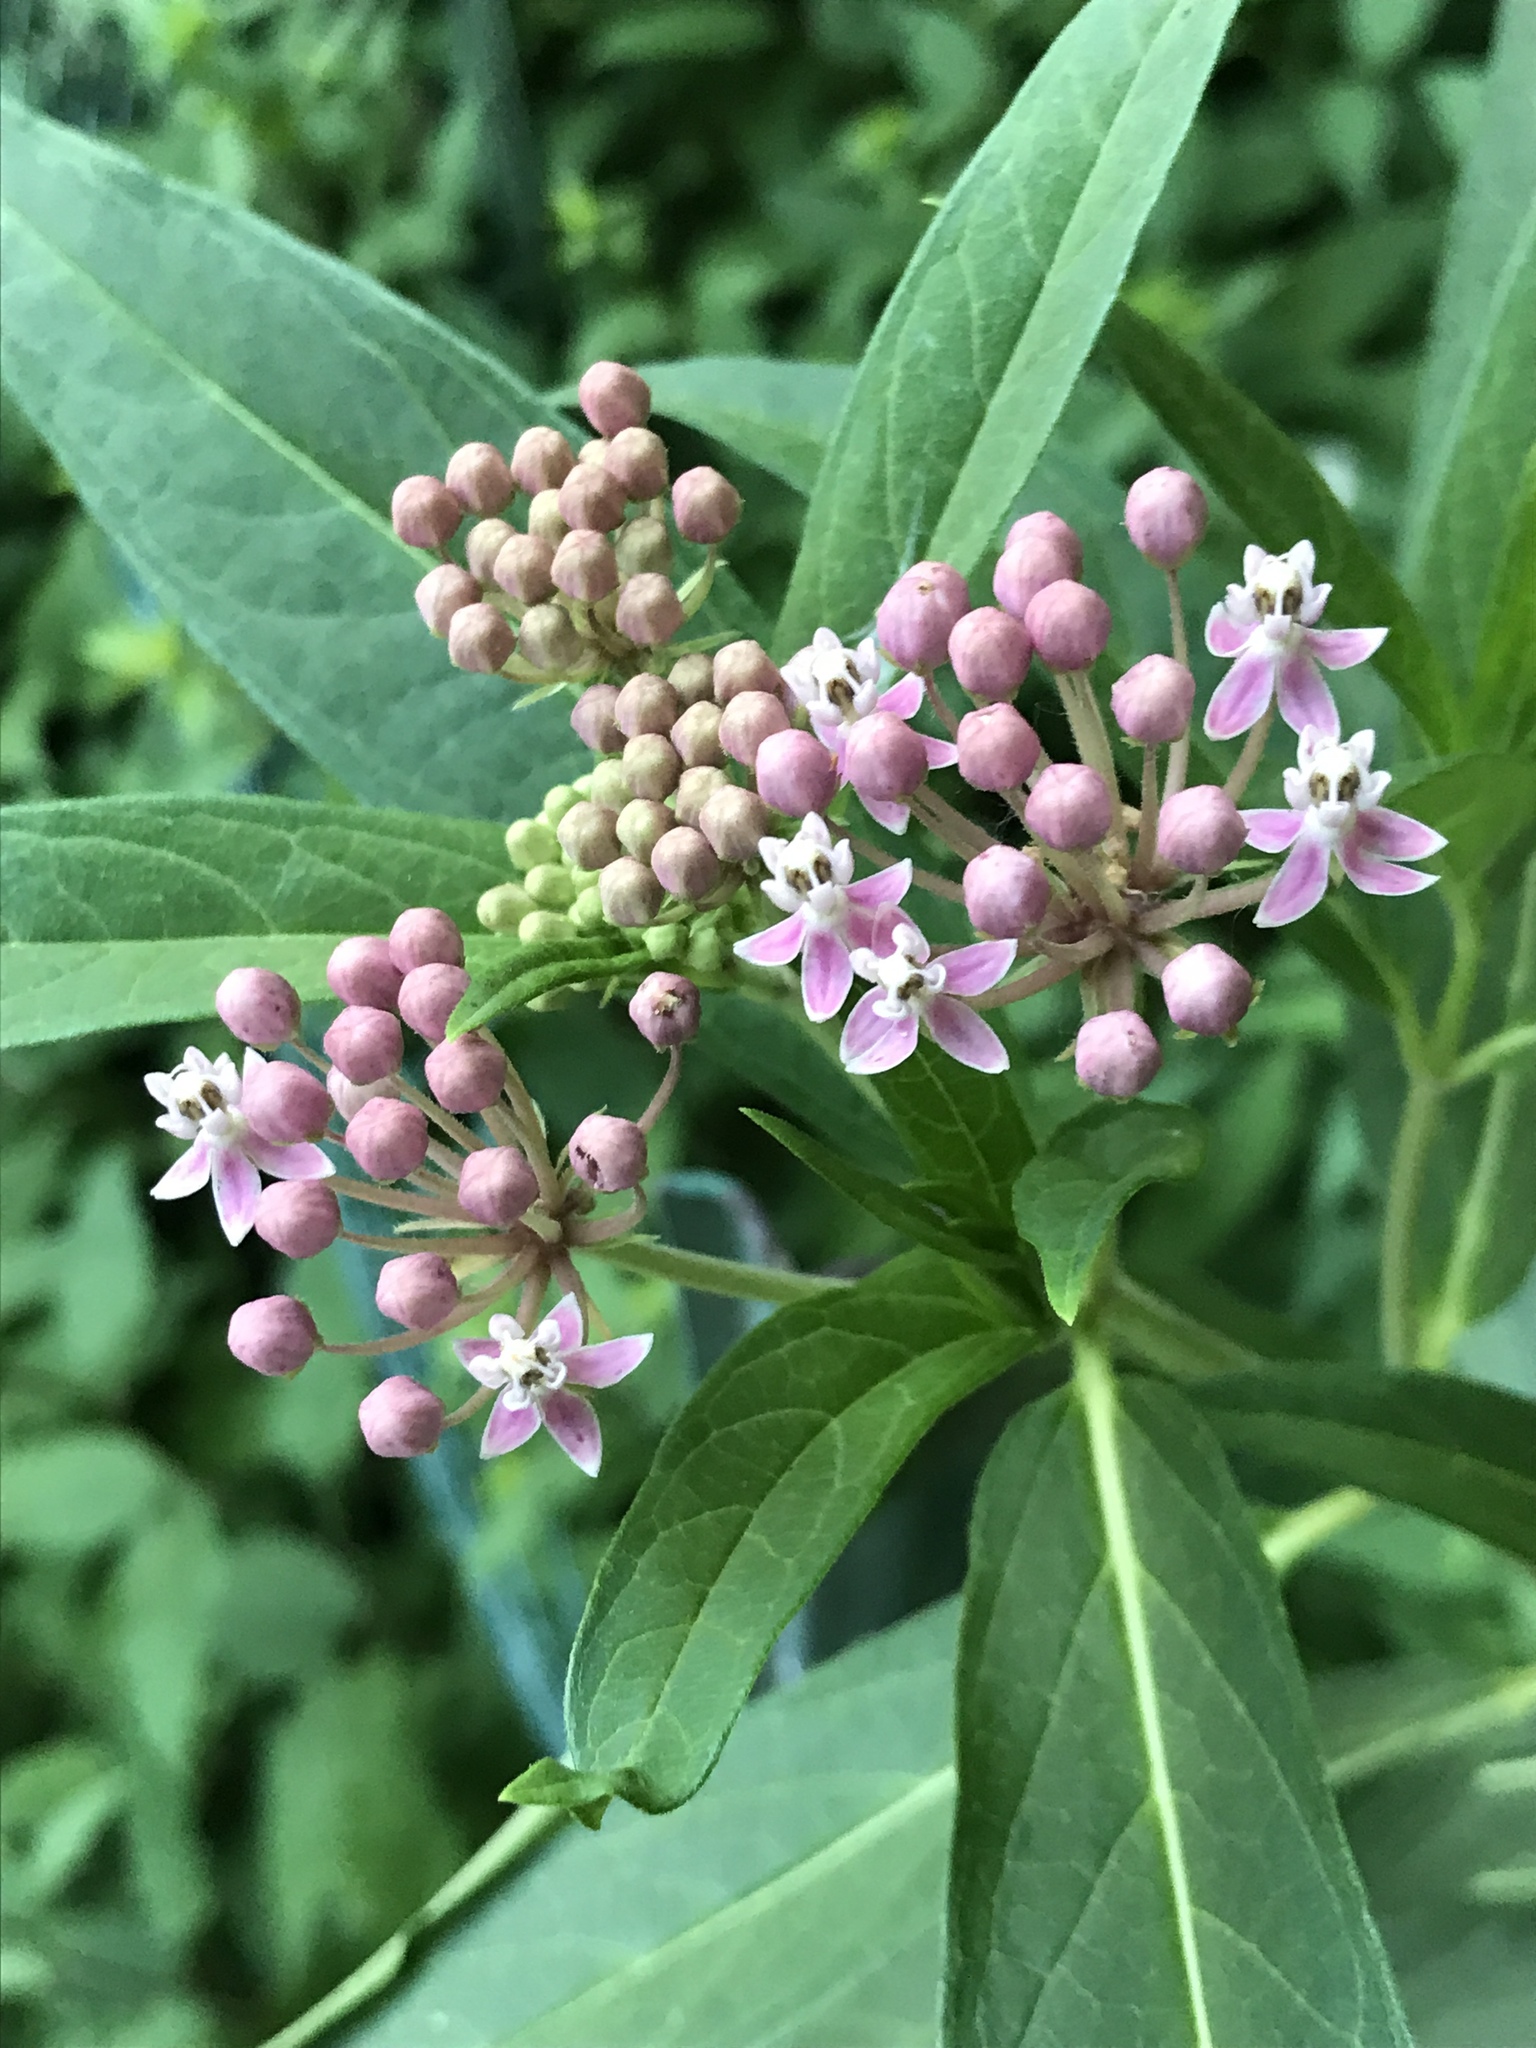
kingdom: Plantae
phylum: Tracheophyta
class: Magnoliopsida
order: Gentianales
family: Apocynaceae
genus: Asclepias
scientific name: Asclepias incarnata
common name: Swamp milkweed
